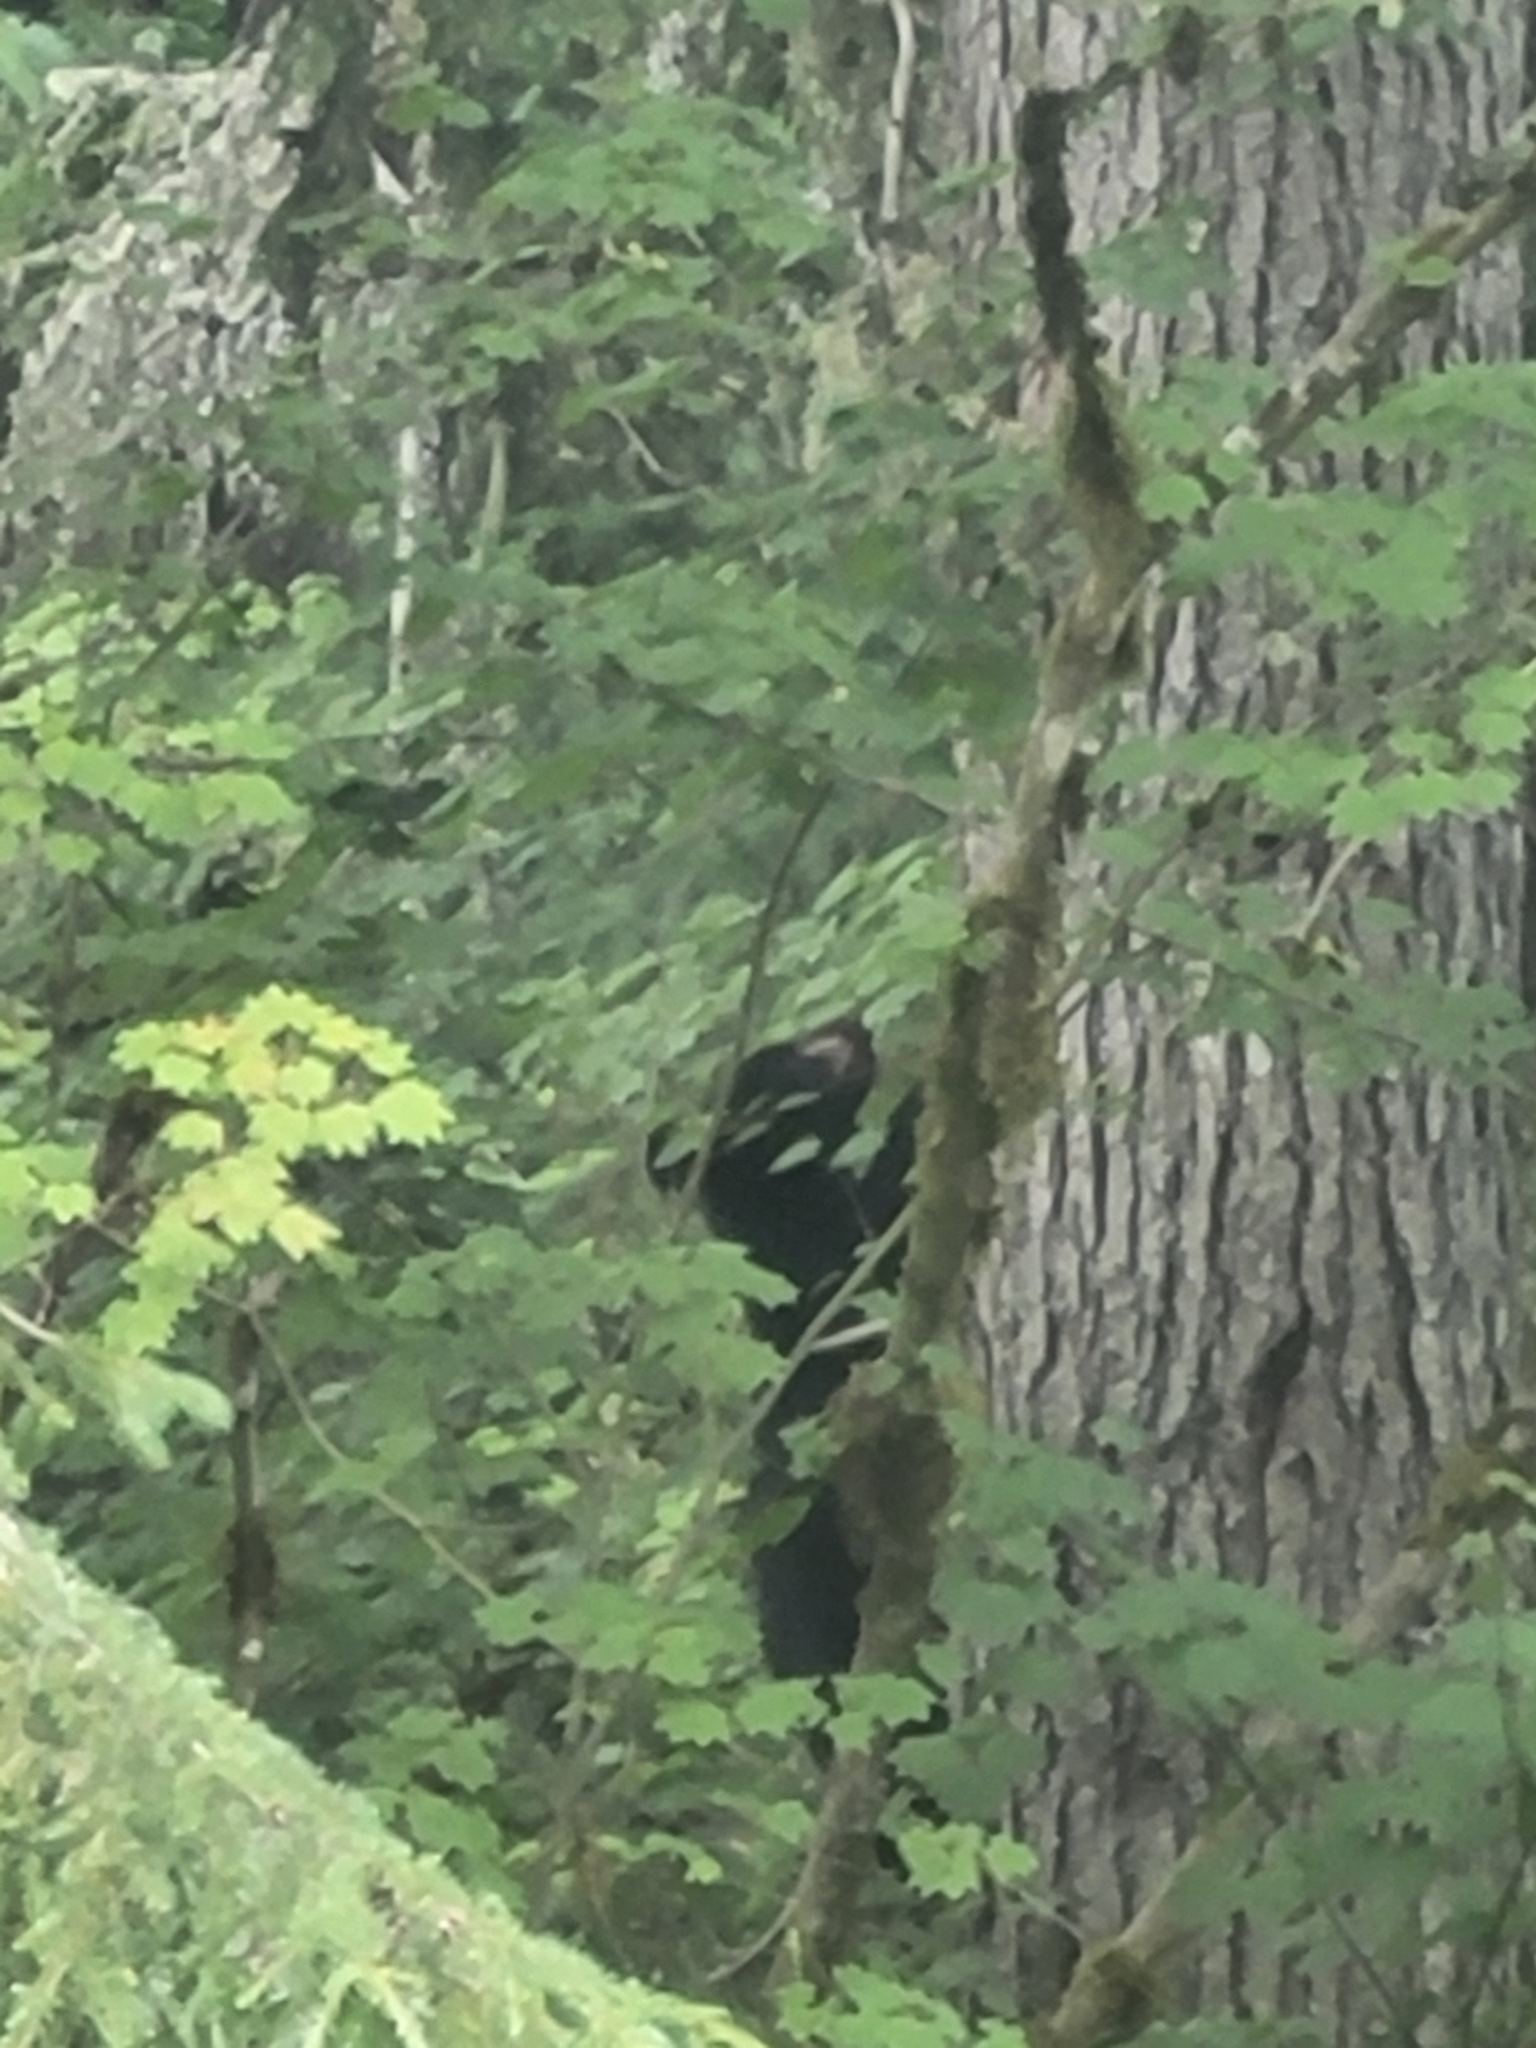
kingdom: Animalia
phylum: Chordata
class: Mammalia
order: Carnivora
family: Ursidae
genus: Ursus
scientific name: Ursus americanus
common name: American black bear
